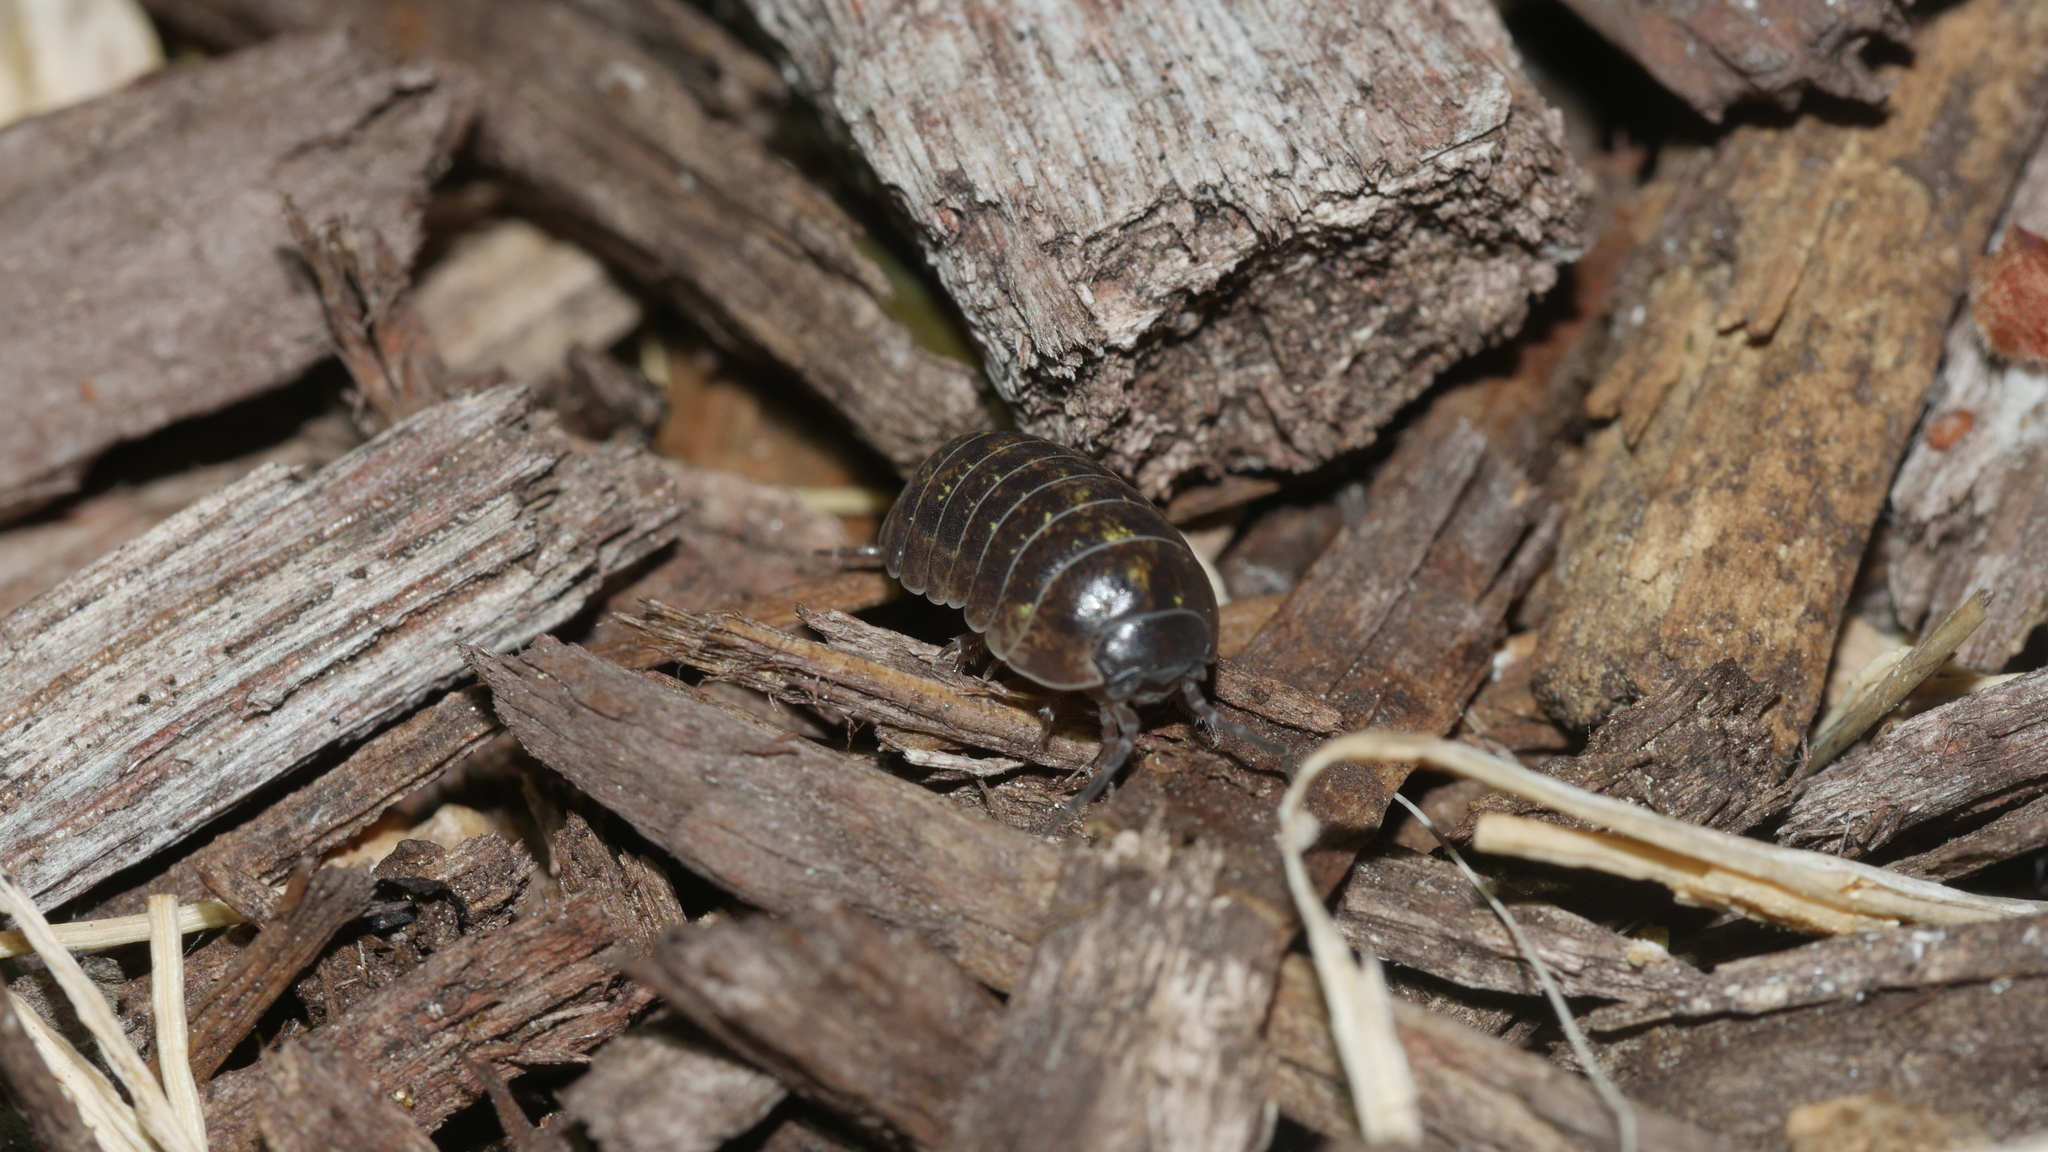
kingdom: Animalia
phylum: Arthropoda
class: Malacostraca
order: Isopoda
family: Armadillidiidae
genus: Armadillidium
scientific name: Armadillidium vulgare
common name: Common pill woodlouse
